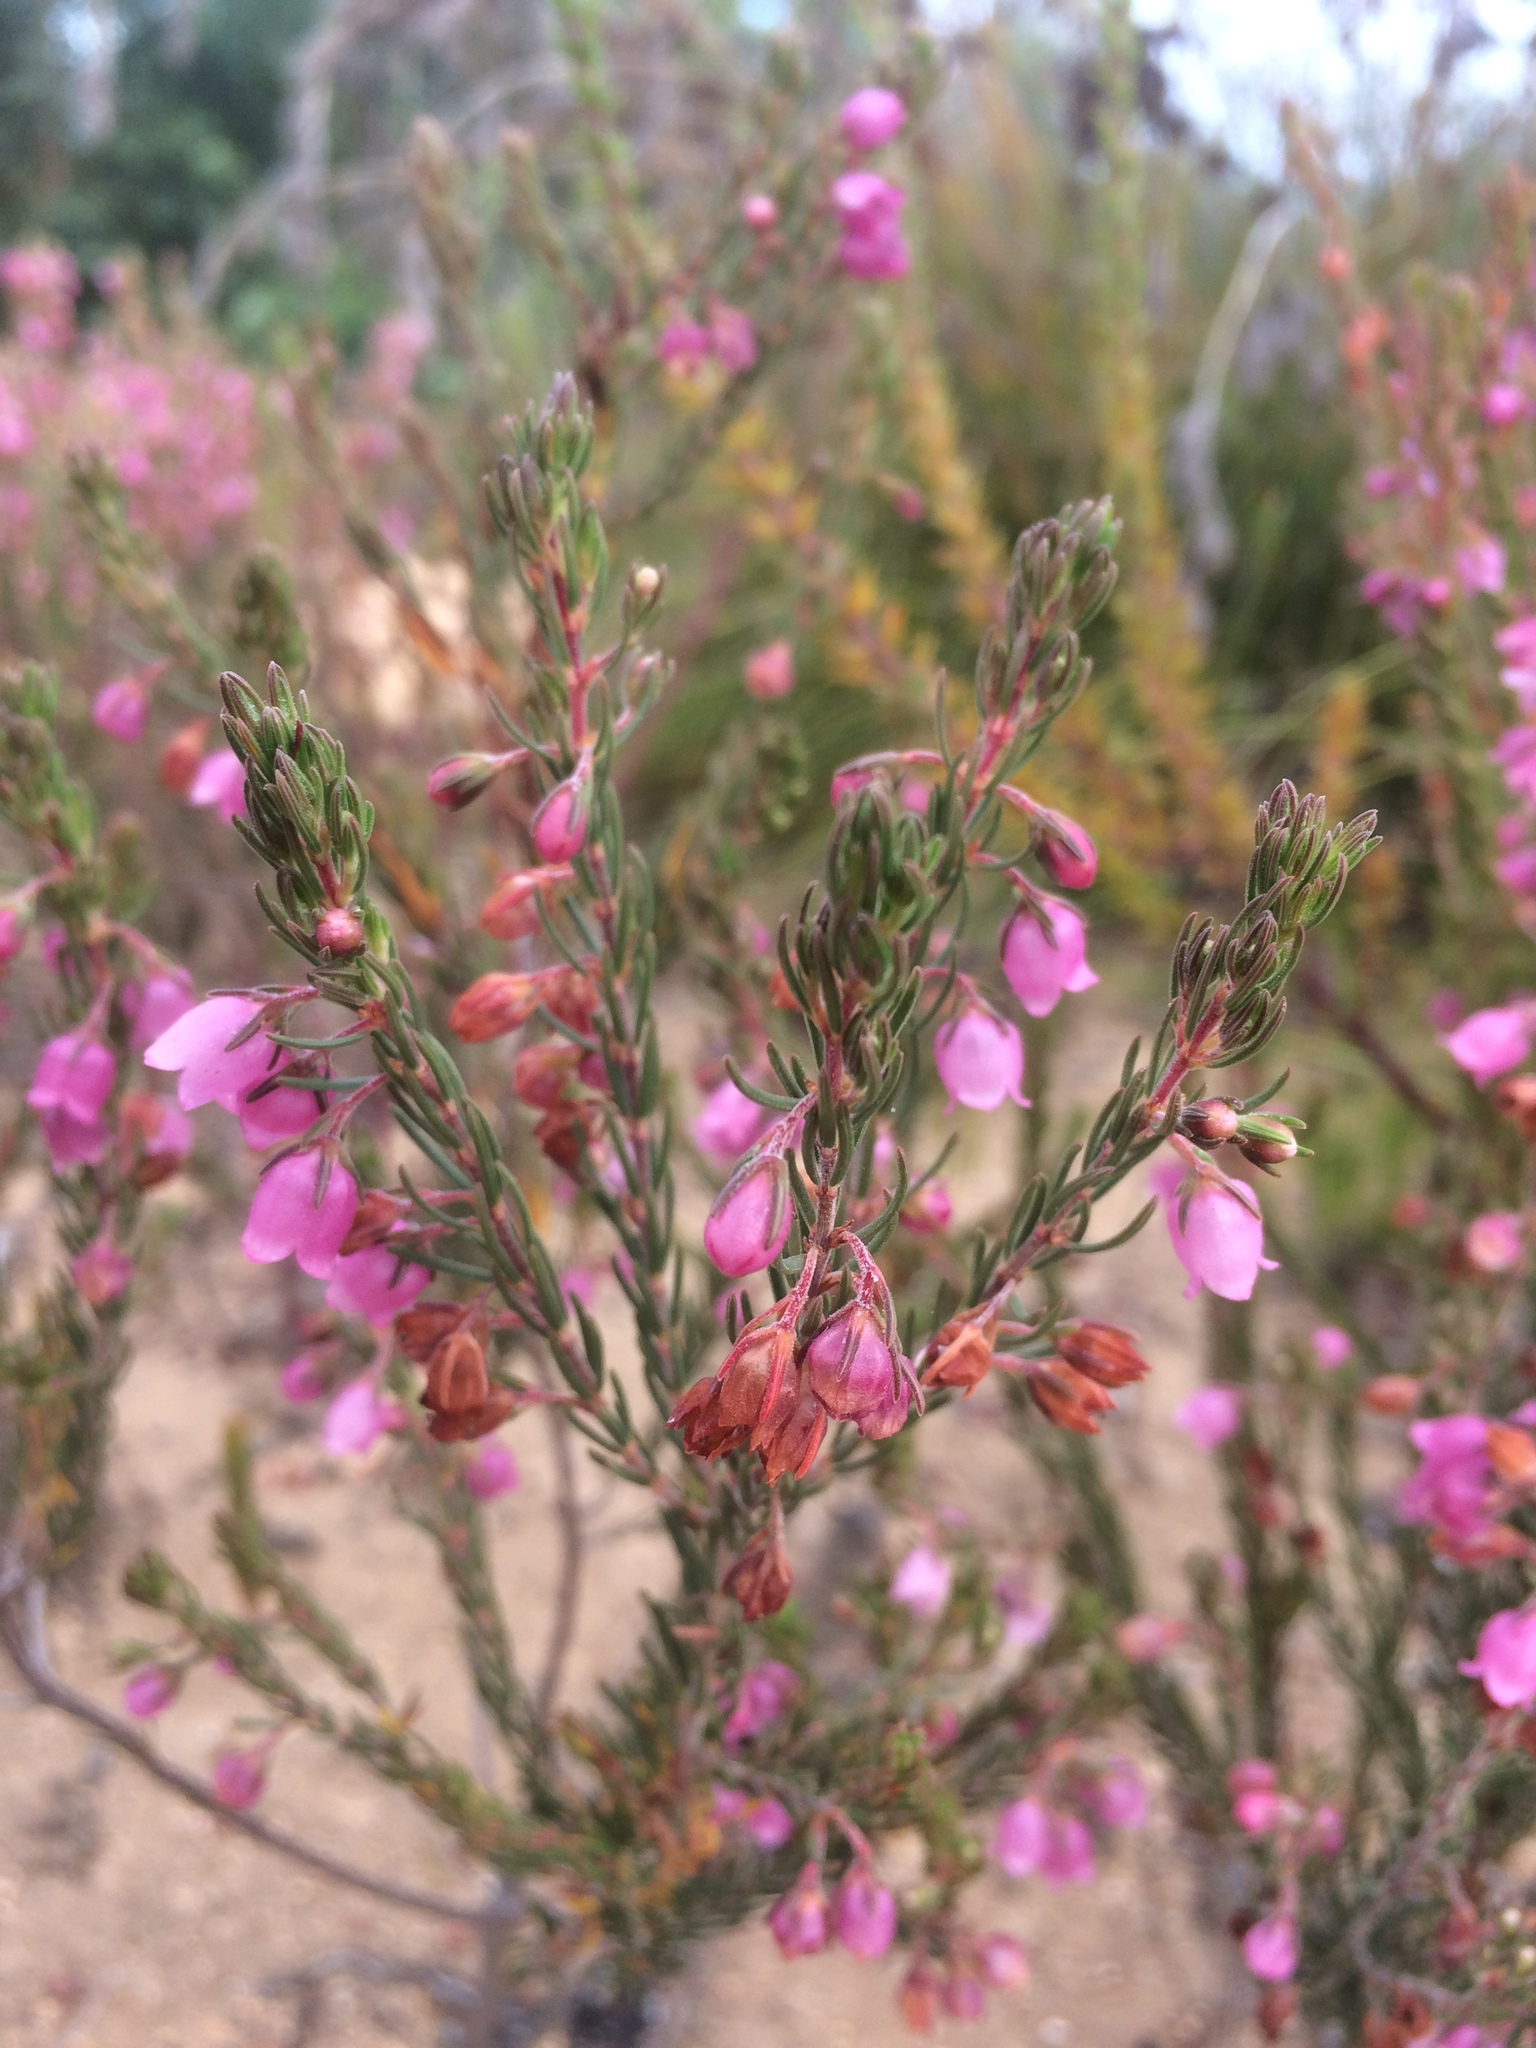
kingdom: Plantae
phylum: Tracheophyta
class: Magnoliopsida
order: Ericales
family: Ericaceae
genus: Erica
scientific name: Erica viscaria
